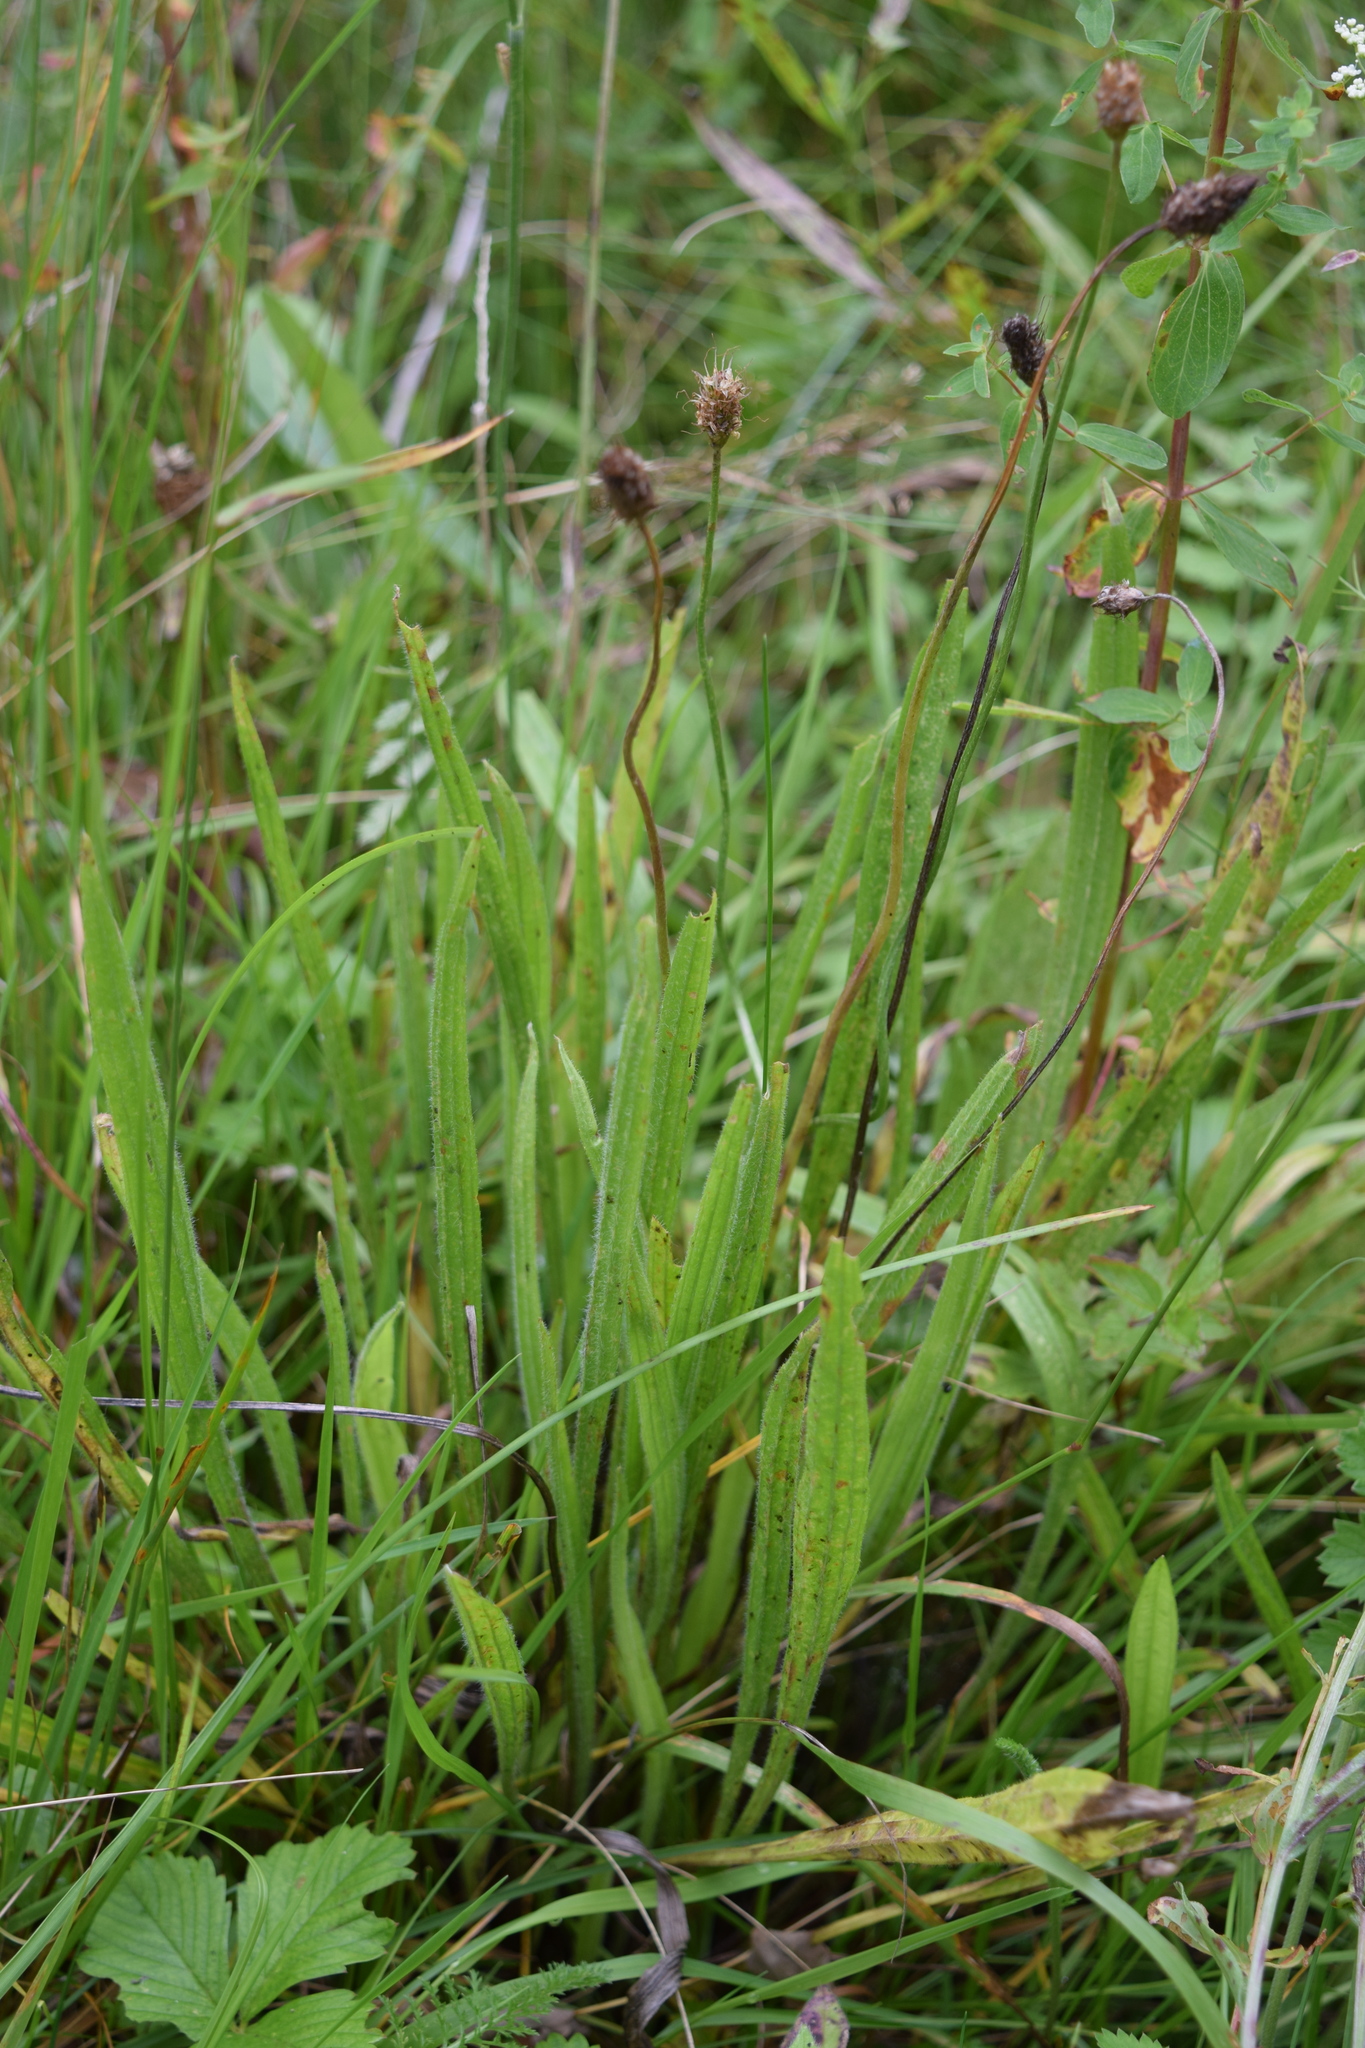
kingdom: Plantae
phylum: Tracheophyta
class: Magnoliopsida
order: Lamiales
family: Plantaginaceae
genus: Plantago
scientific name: Plantago lanceolata
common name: Ribwort plantain
